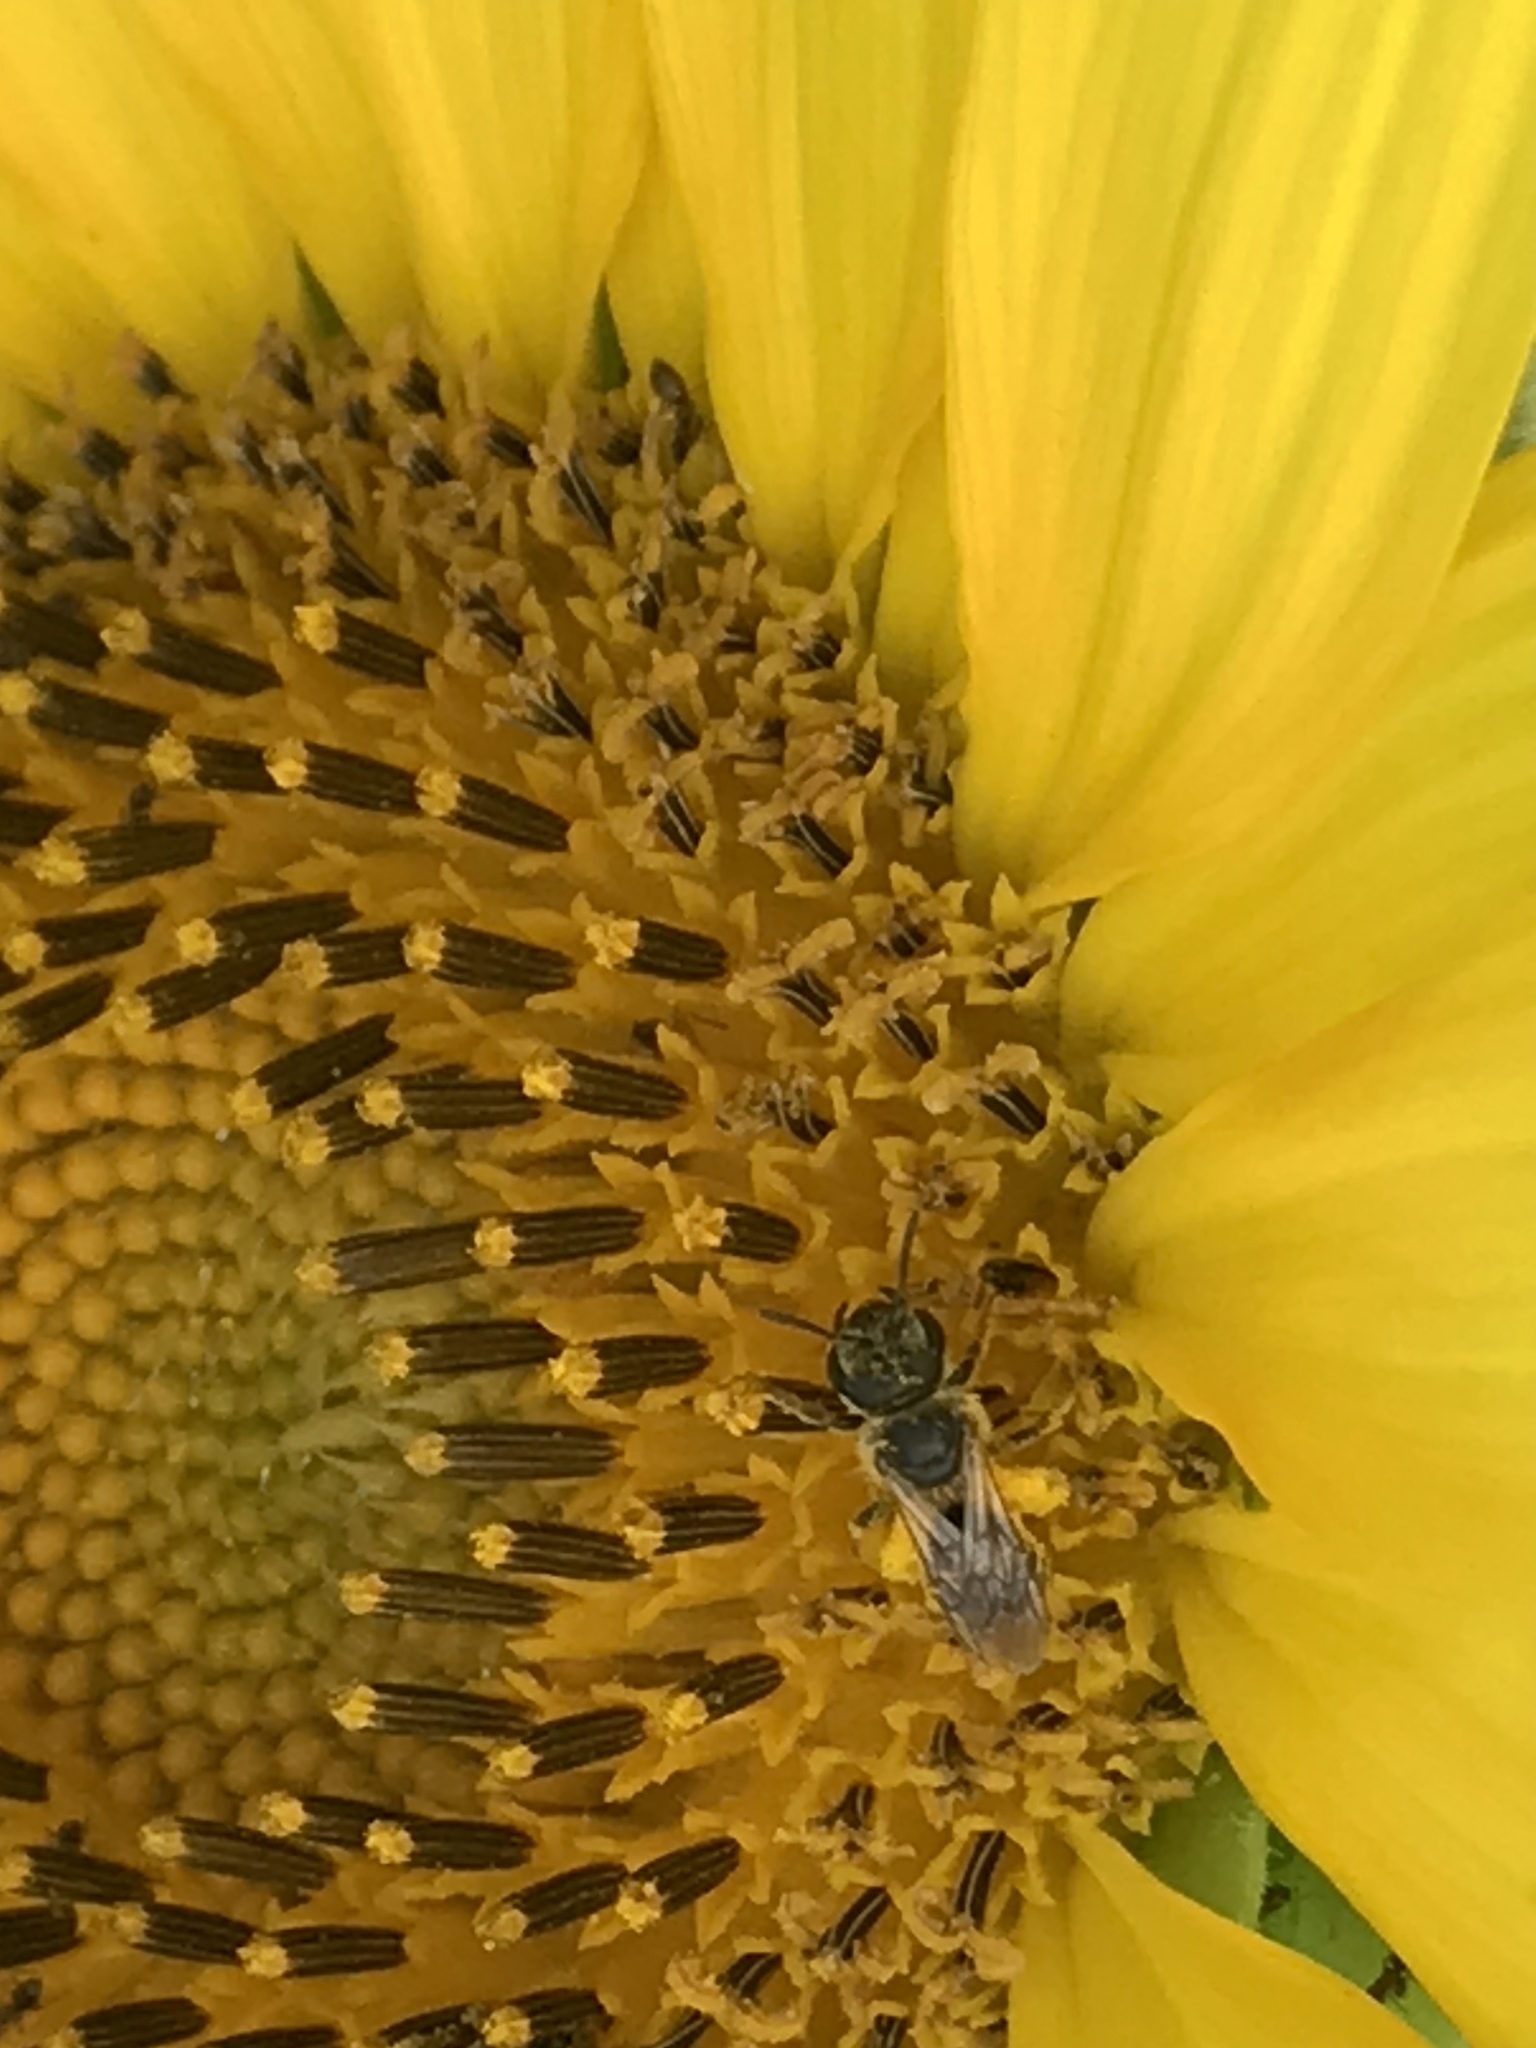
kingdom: Animalia
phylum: Arthropoda
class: Insecta
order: Hymenoptera
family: Halictidae
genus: Halictus
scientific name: Halictus ligatus
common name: Ligated furrow bee
